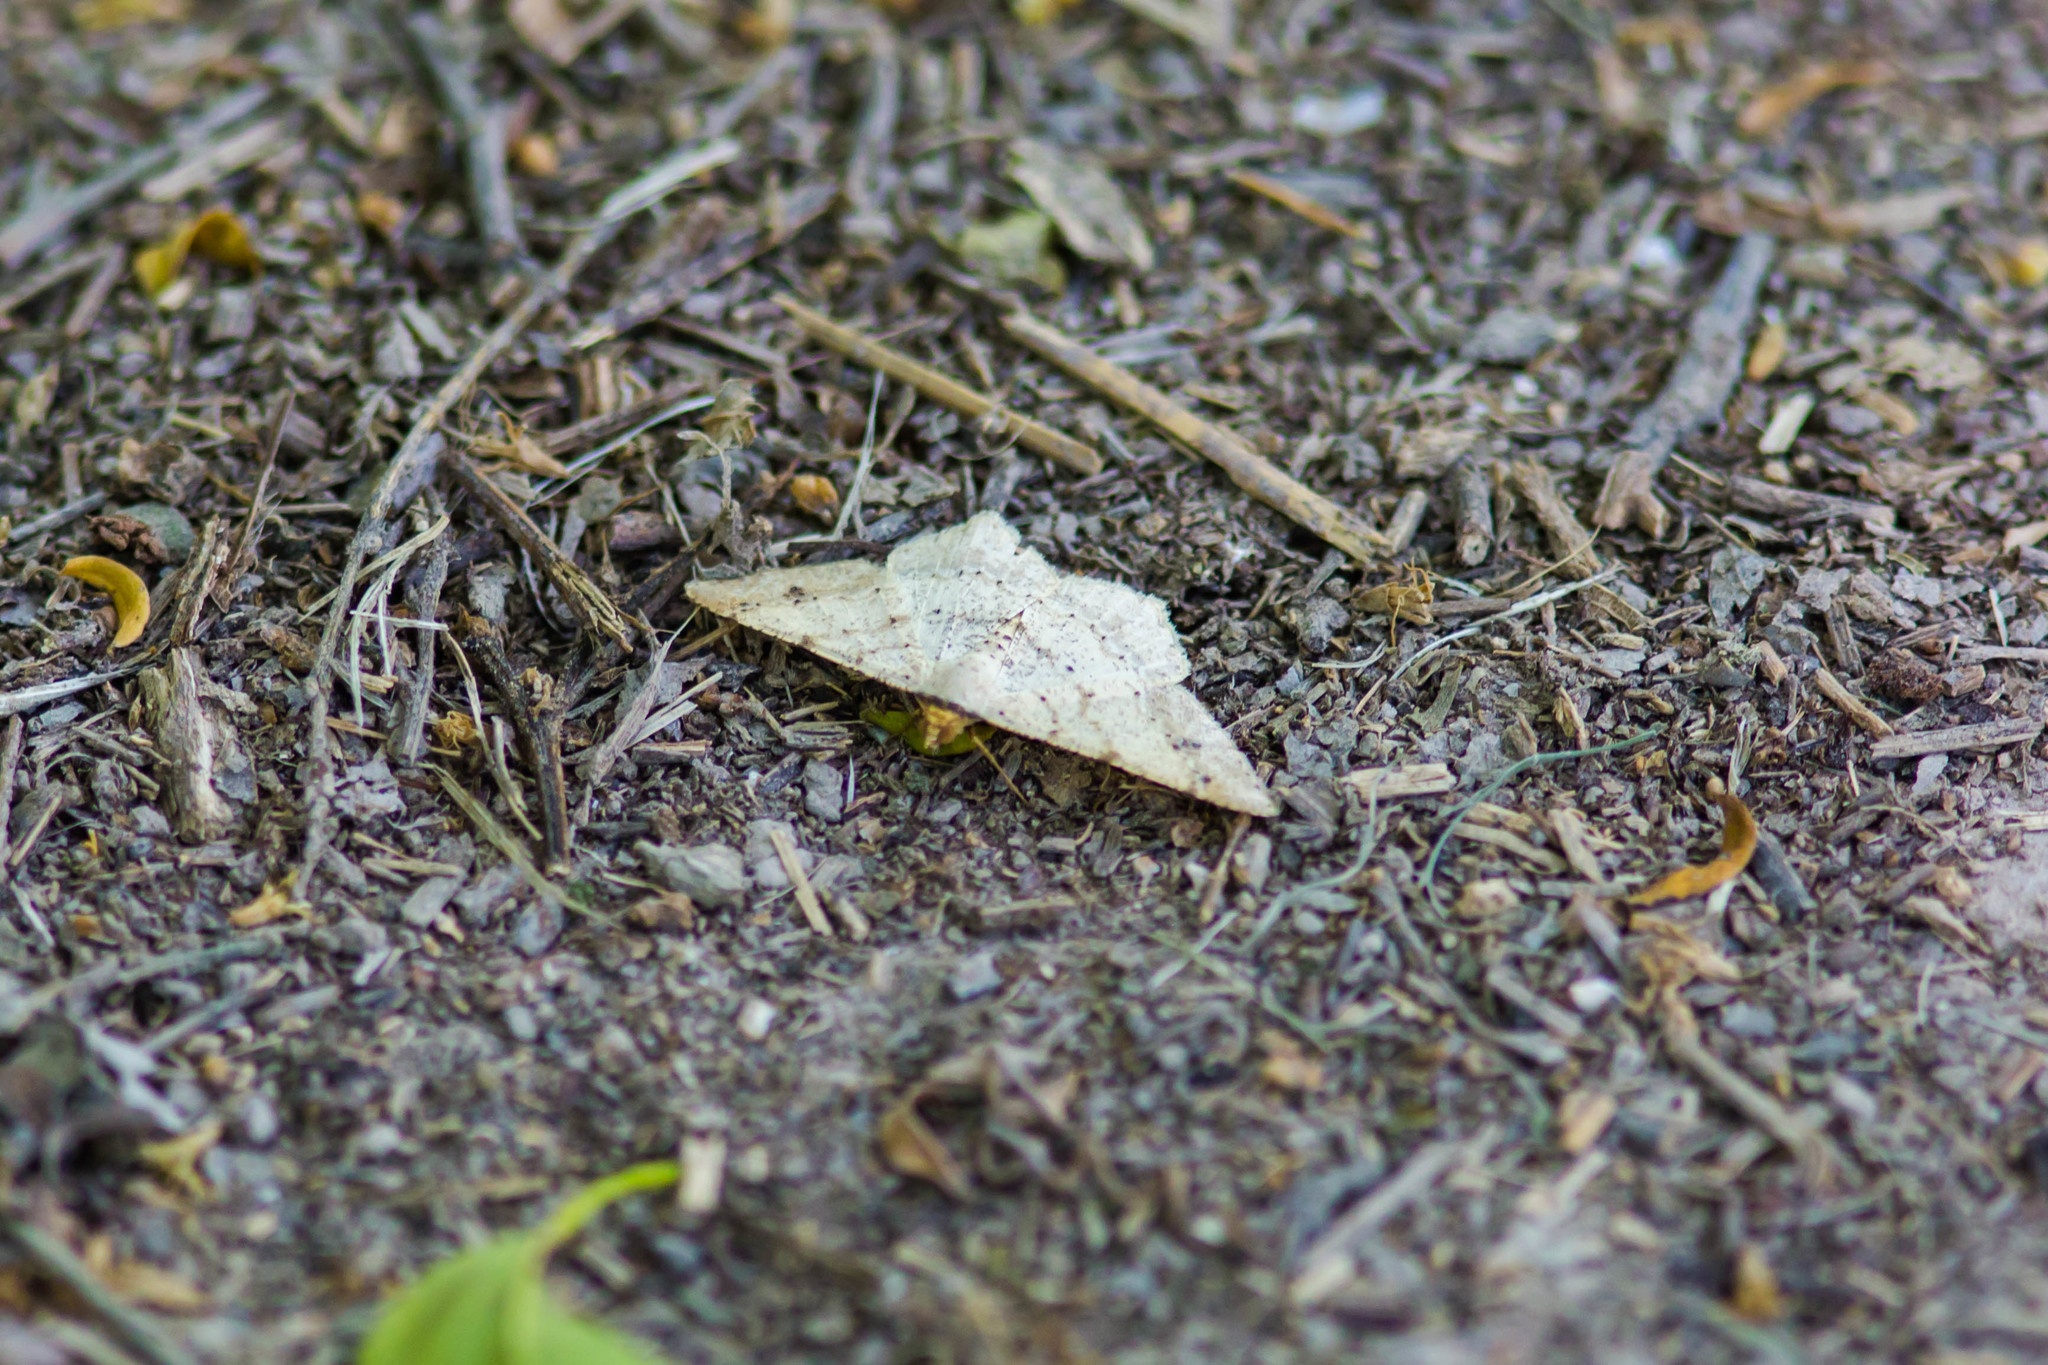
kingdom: Animalia
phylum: Arthropoda
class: Insecta
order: Lepidoptera
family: Geometridae
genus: Macaria
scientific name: Macaria abydata
